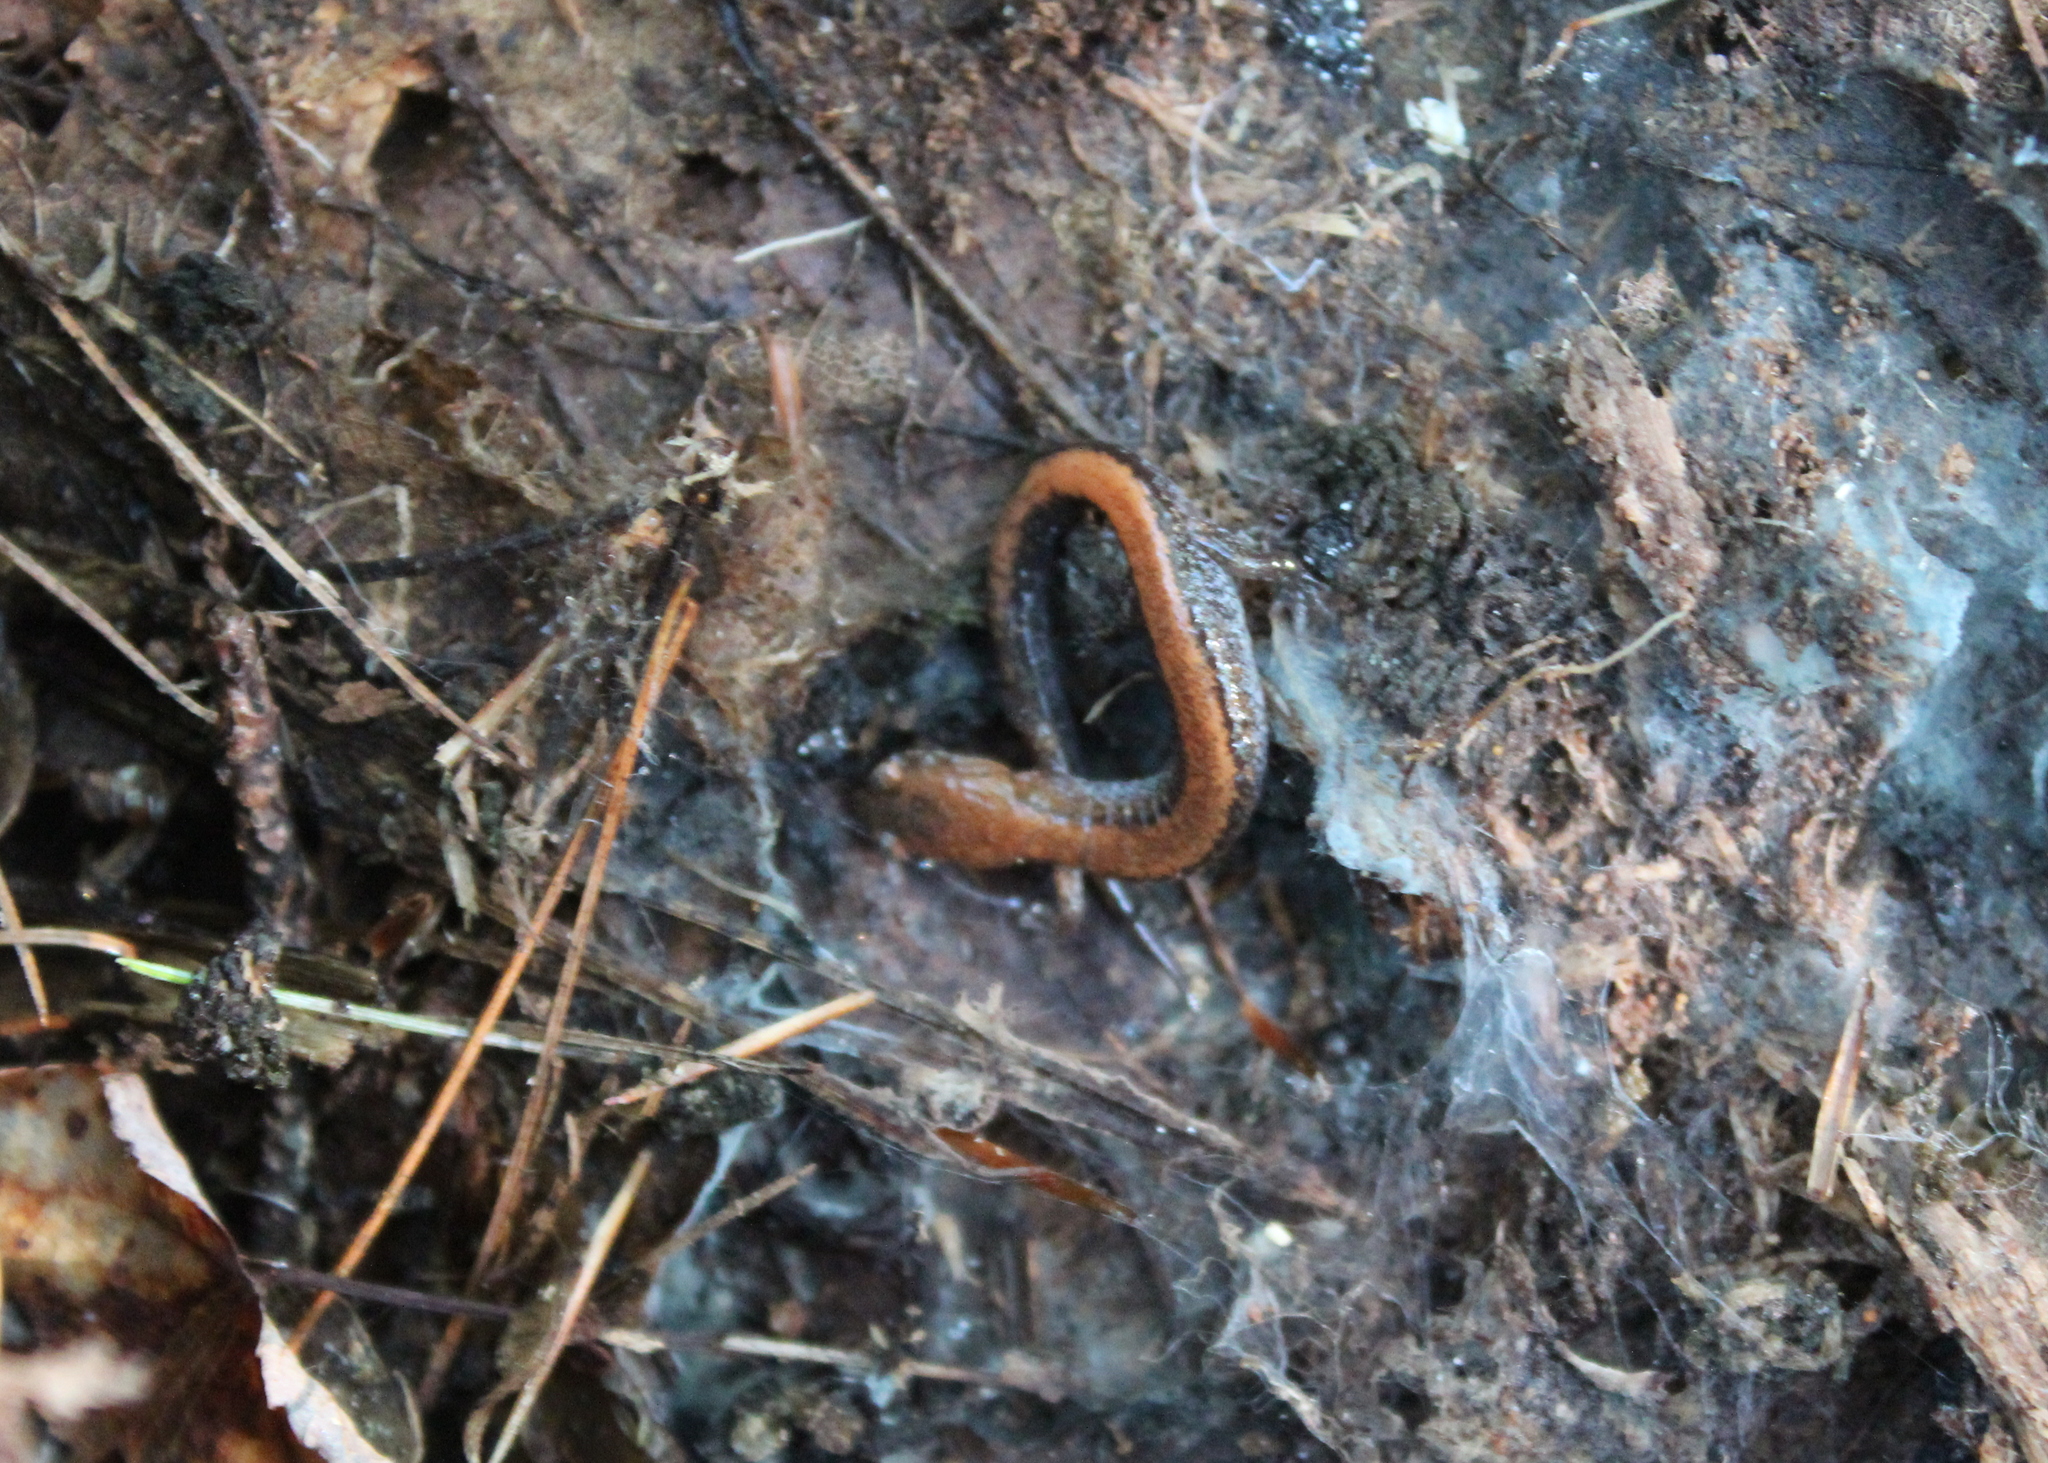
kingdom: Animalia
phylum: Chordata
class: Amphibia
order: Caudata
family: Plethodontidae
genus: Plethodon
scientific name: Plethodon cinereus
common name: Redback salamander
